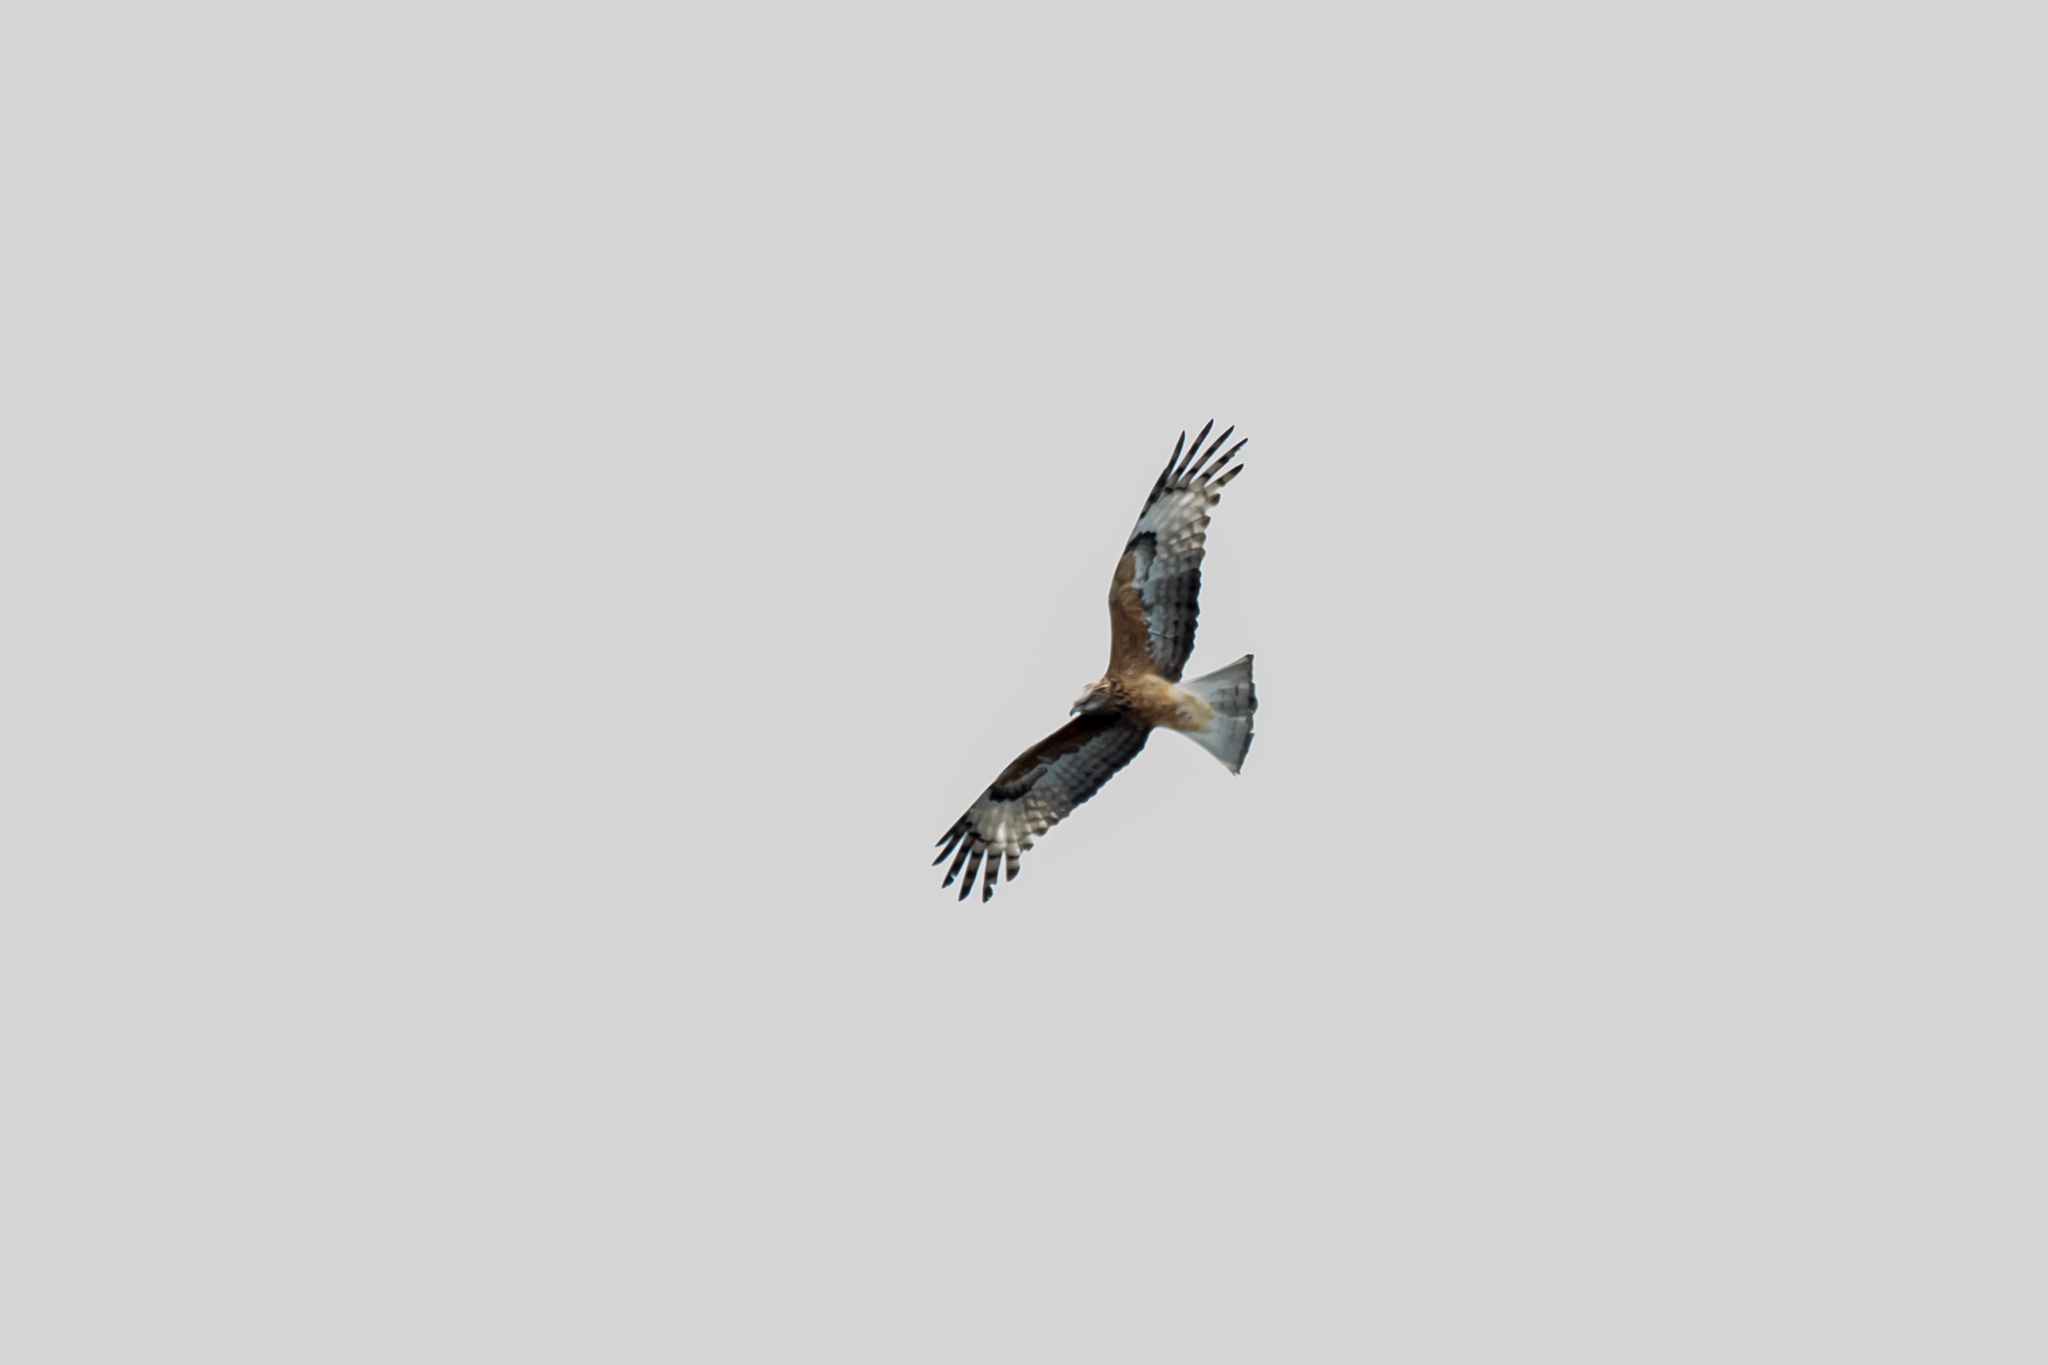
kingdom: Animalia
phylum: Chordata
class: Aves
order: Accipitriformes
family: Accipitridae
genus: Lophoictinia
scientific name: Lophoictinia isura
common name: Square-tailed kite
